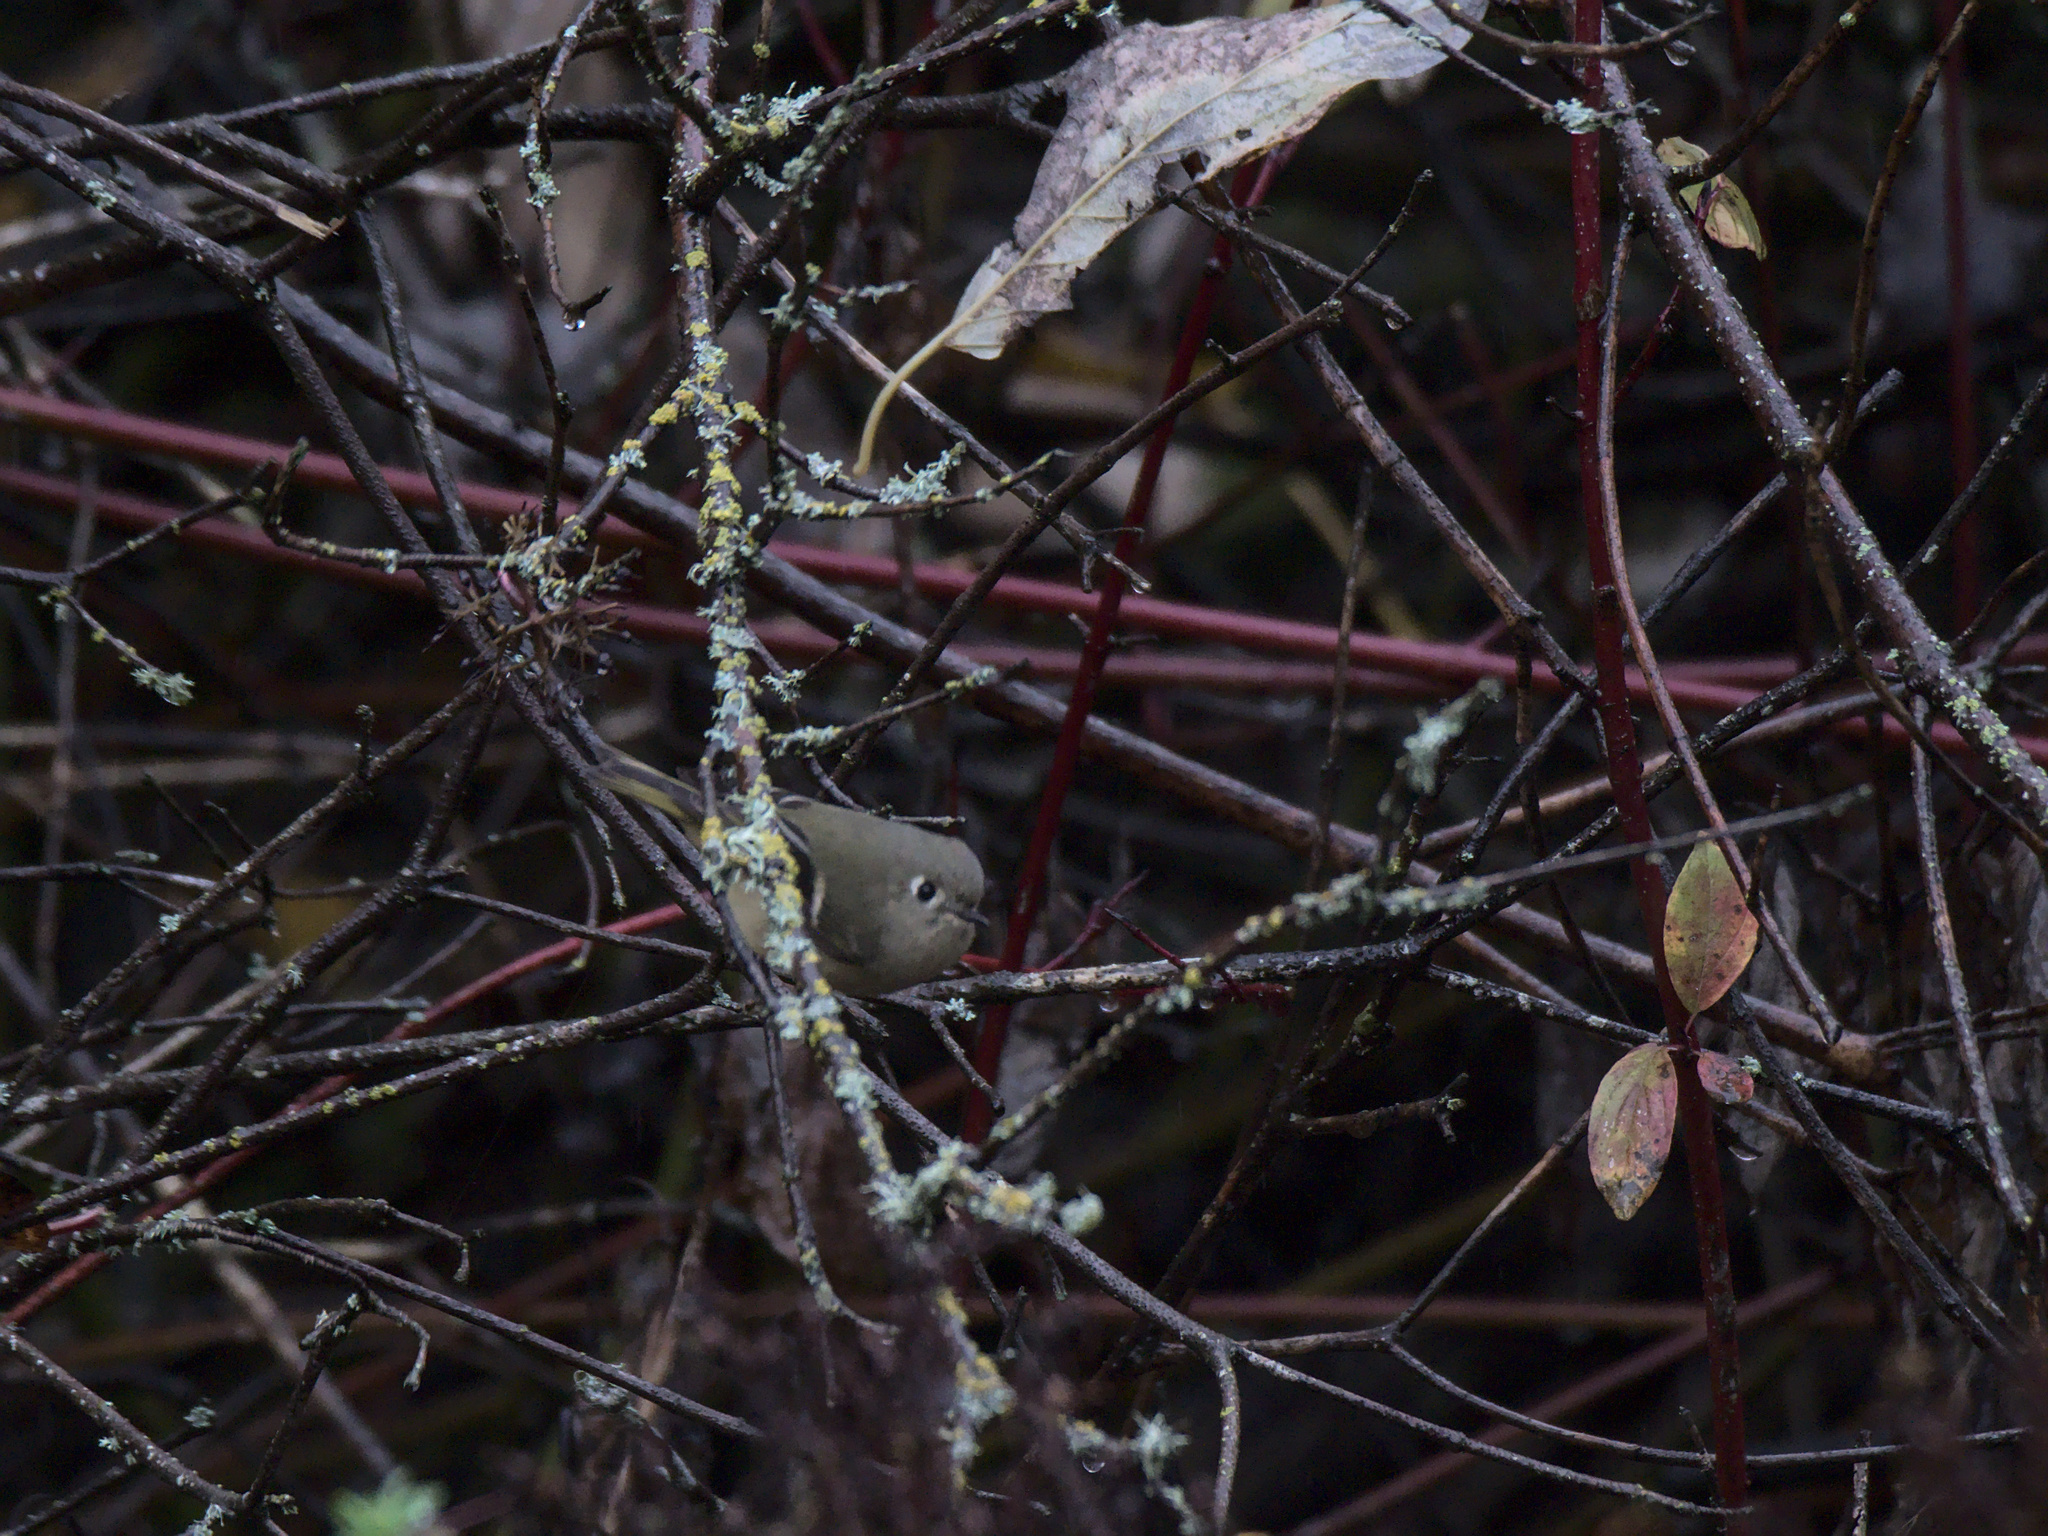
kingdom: Animalia
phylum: Chordata
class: Aves
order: Passeriformes
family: Regulidae
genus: Regulus
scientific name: Regulus calendula
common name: Ruby-crowned kinglet
